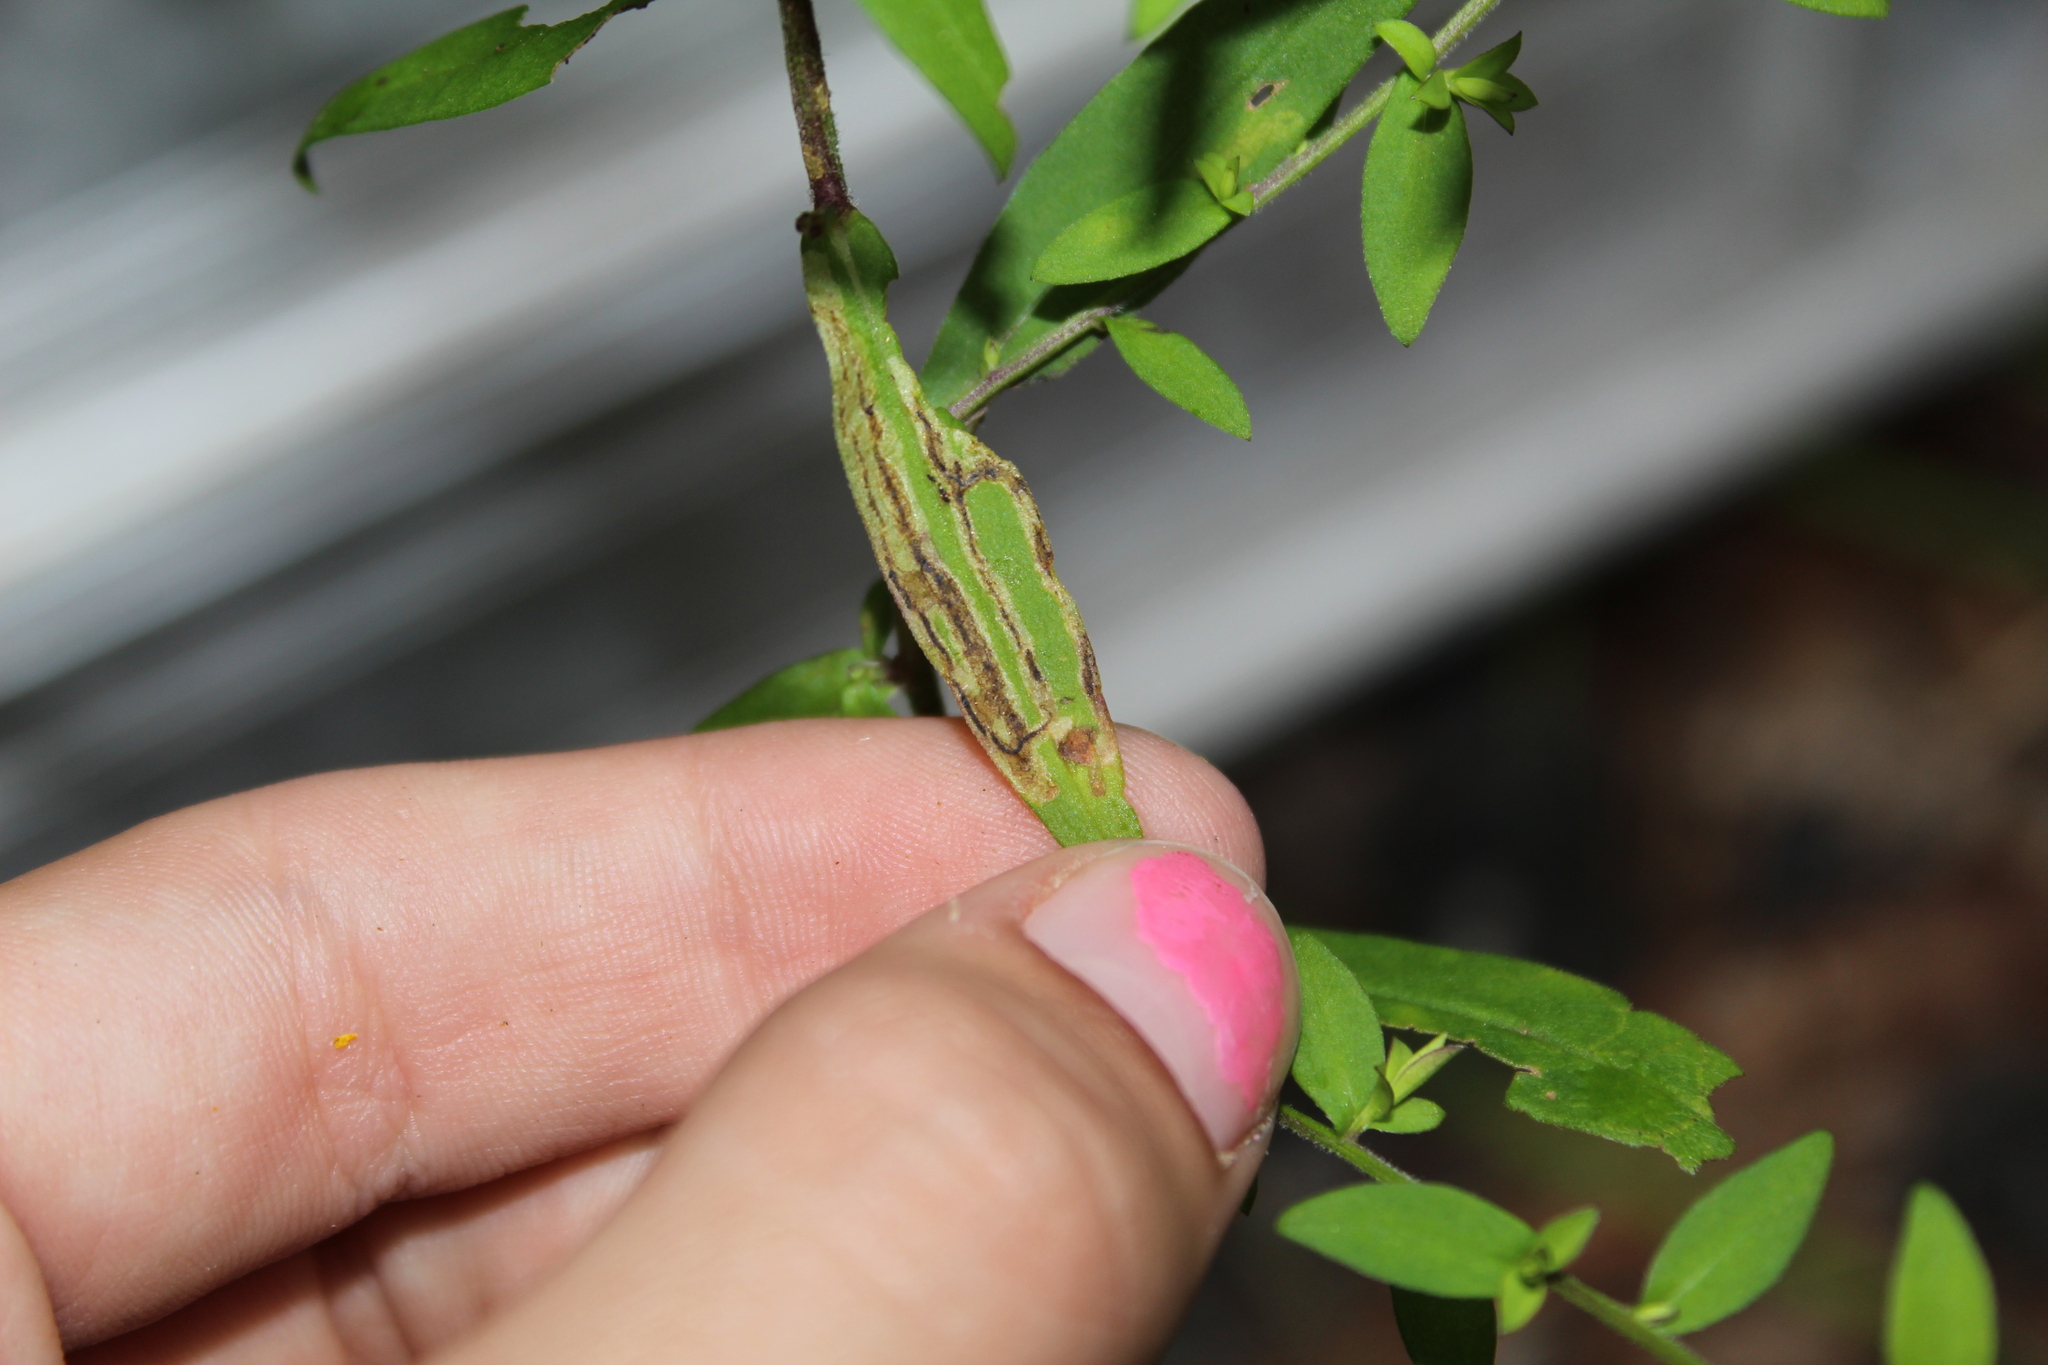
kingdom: Animalia
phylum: Arthropoda
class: Insecta
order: Diptera
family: Agromyzidae
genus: Liriomyza
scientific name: Liriomyza eupatorii
